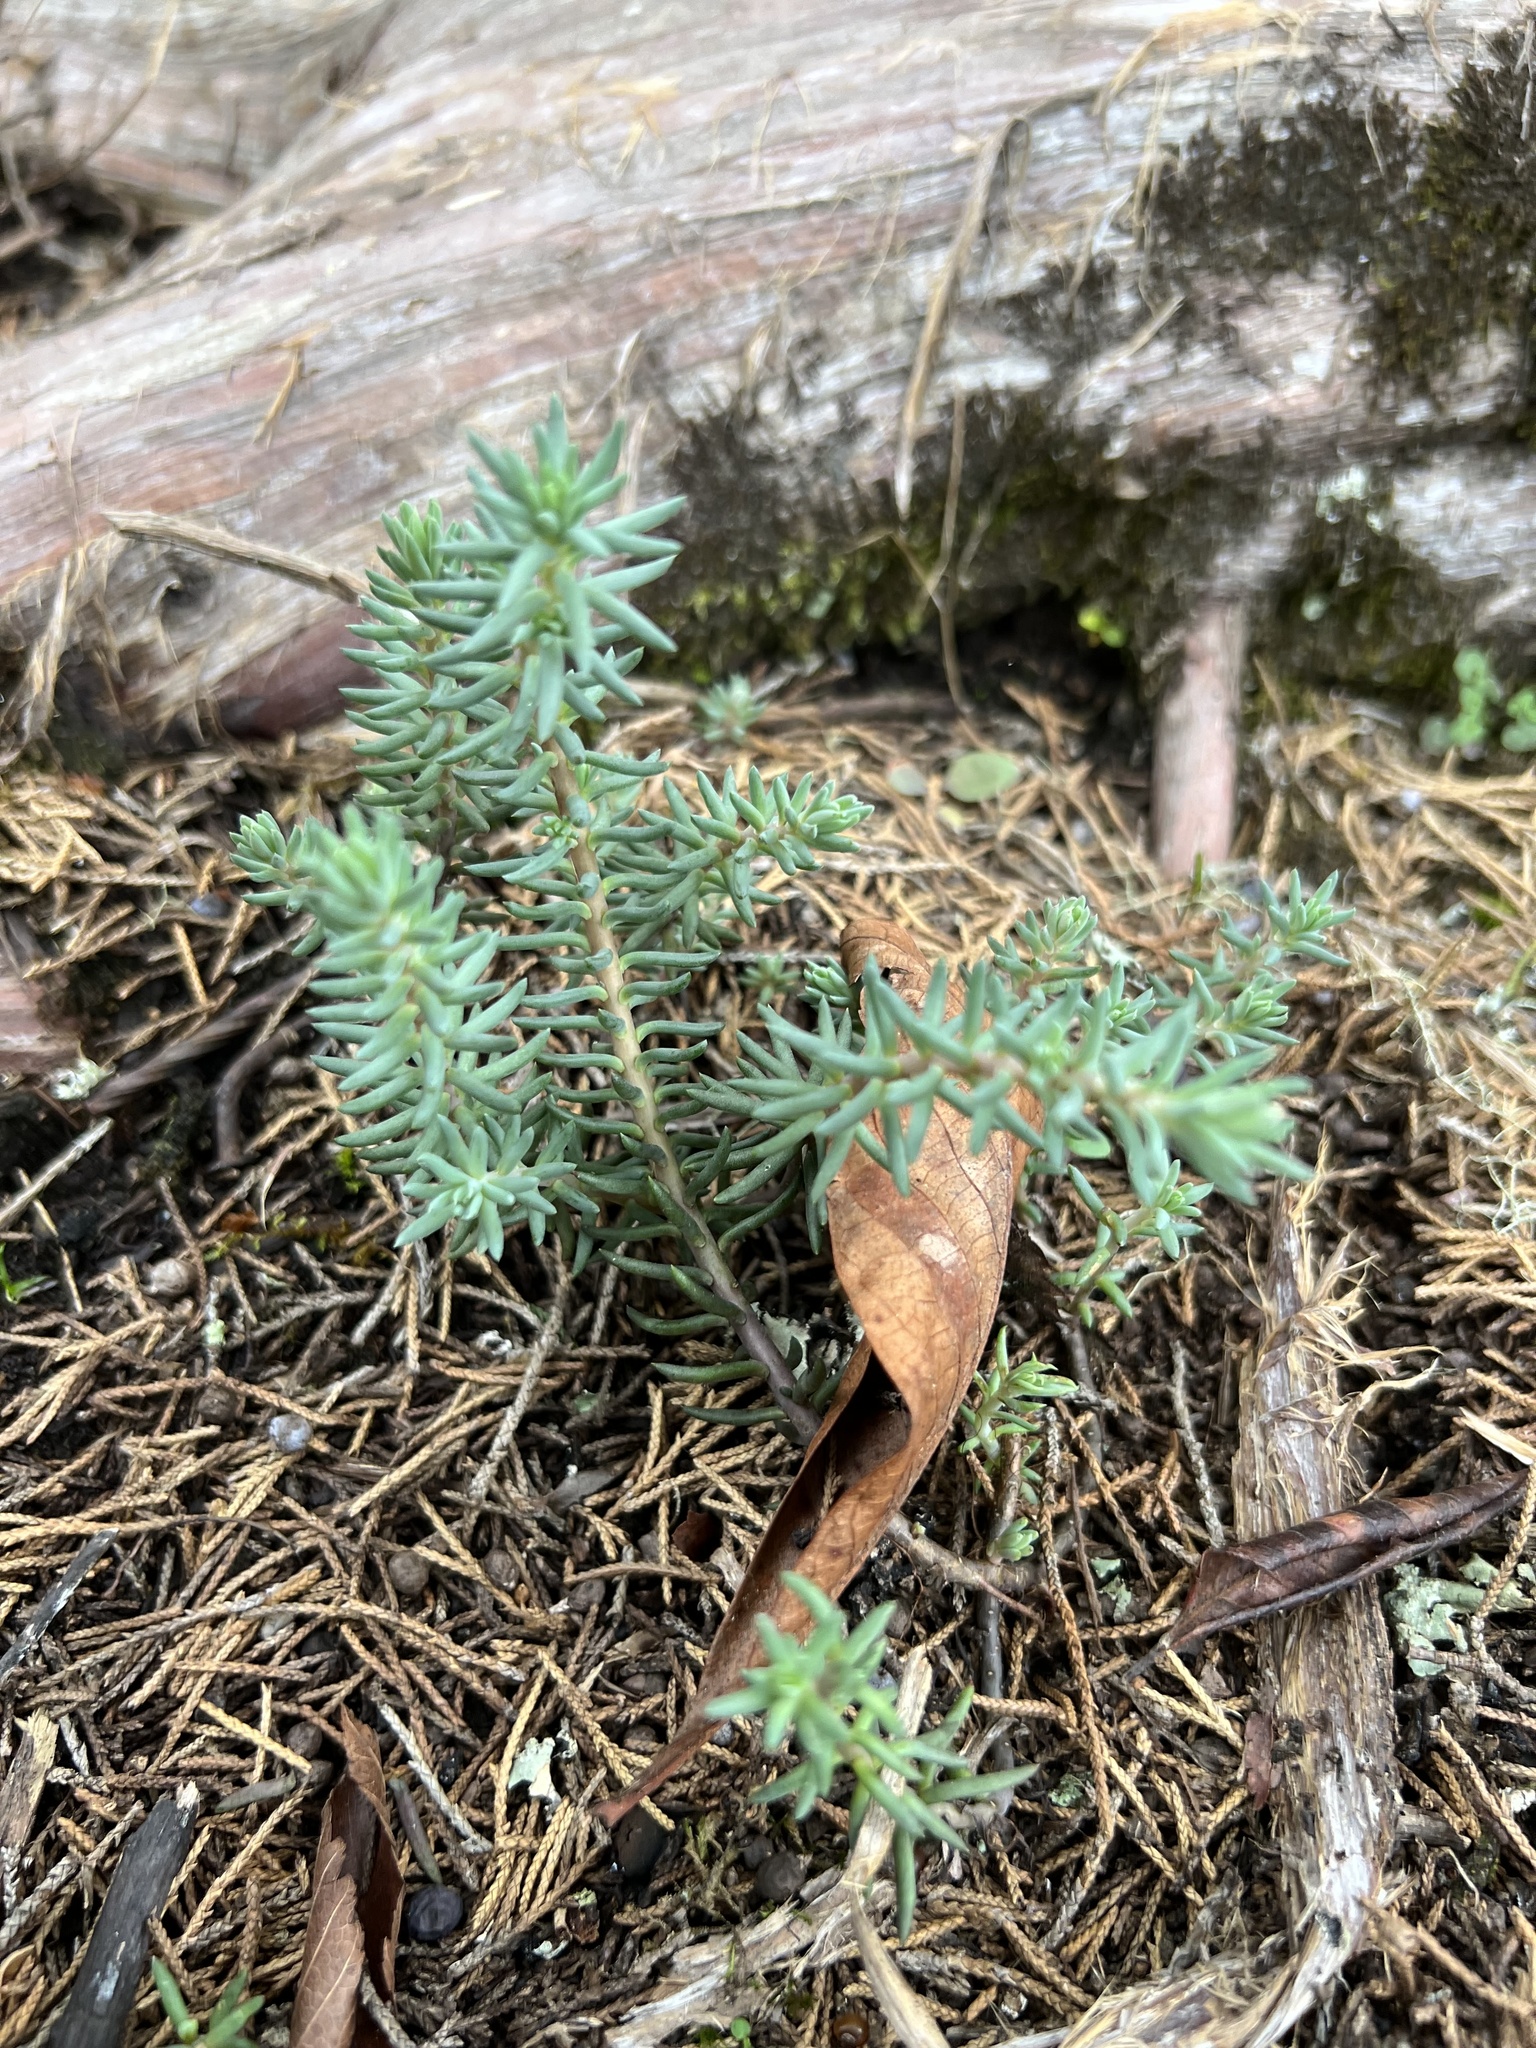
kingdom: Plantae
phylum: Tracheophyta
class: Magnoliopsida
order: Saxifragales
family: Crassulaceae
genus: Petrosedum
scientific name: Petrosedum rupestre
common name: Jenny's stonecrop
